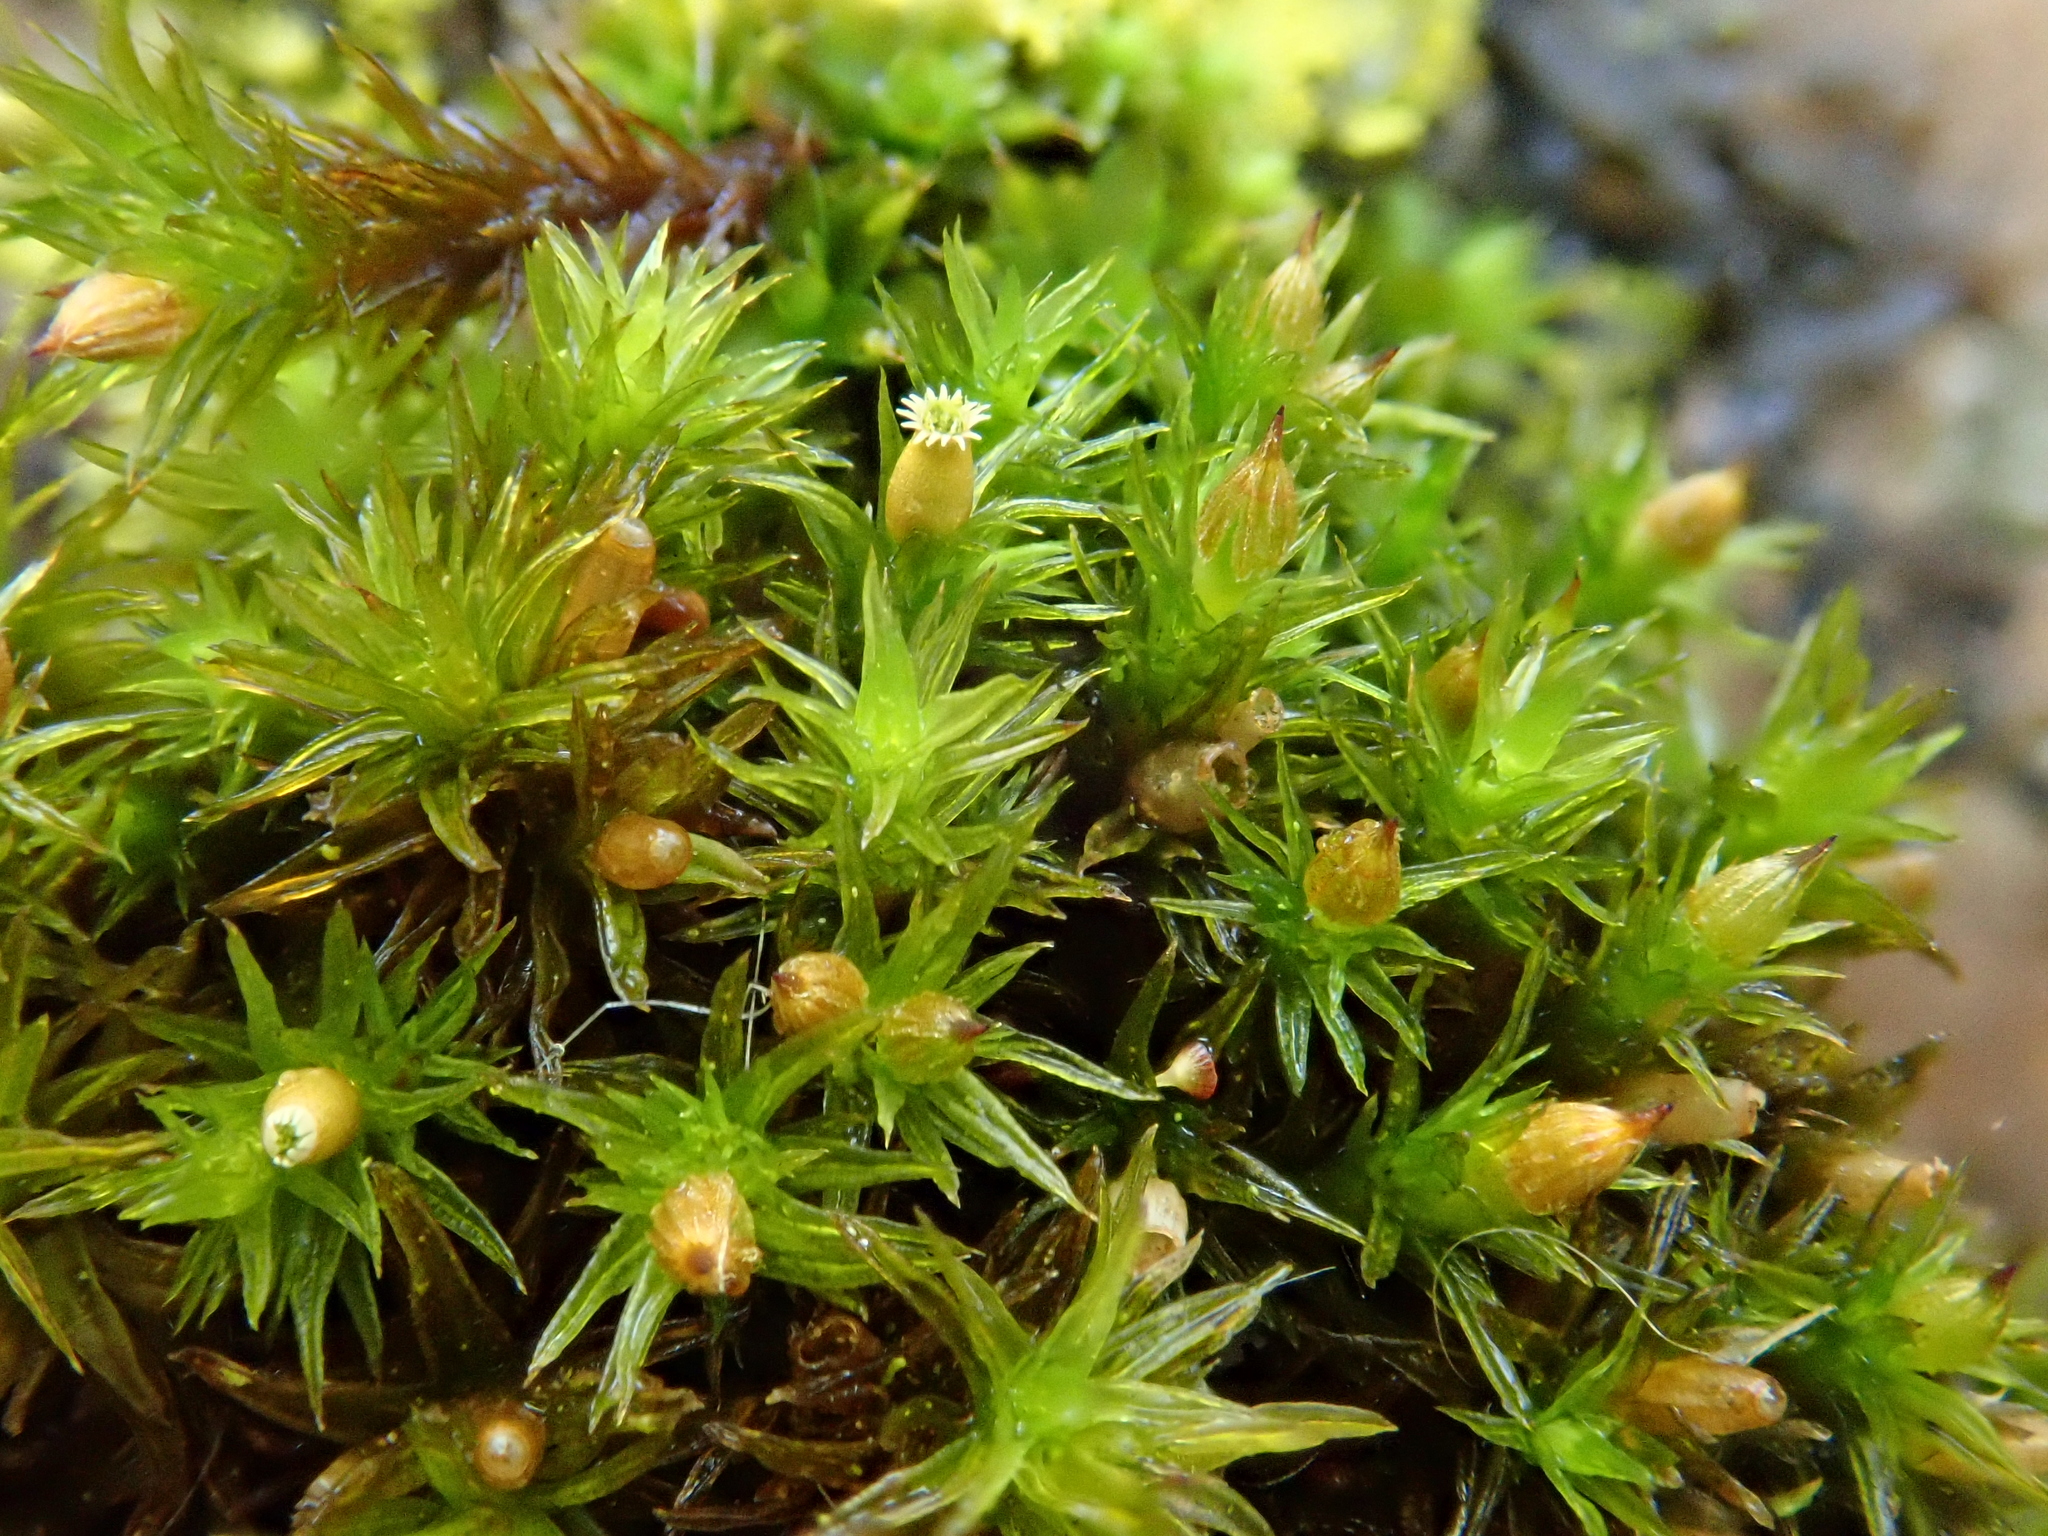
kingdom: Plantae
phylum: Bryophyta
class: Bryopsida
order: Orthotrichales
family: Orthotrichaceae
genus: Lewinskya
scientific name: Lewinskya striata
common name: Shaw's bristle-moss
